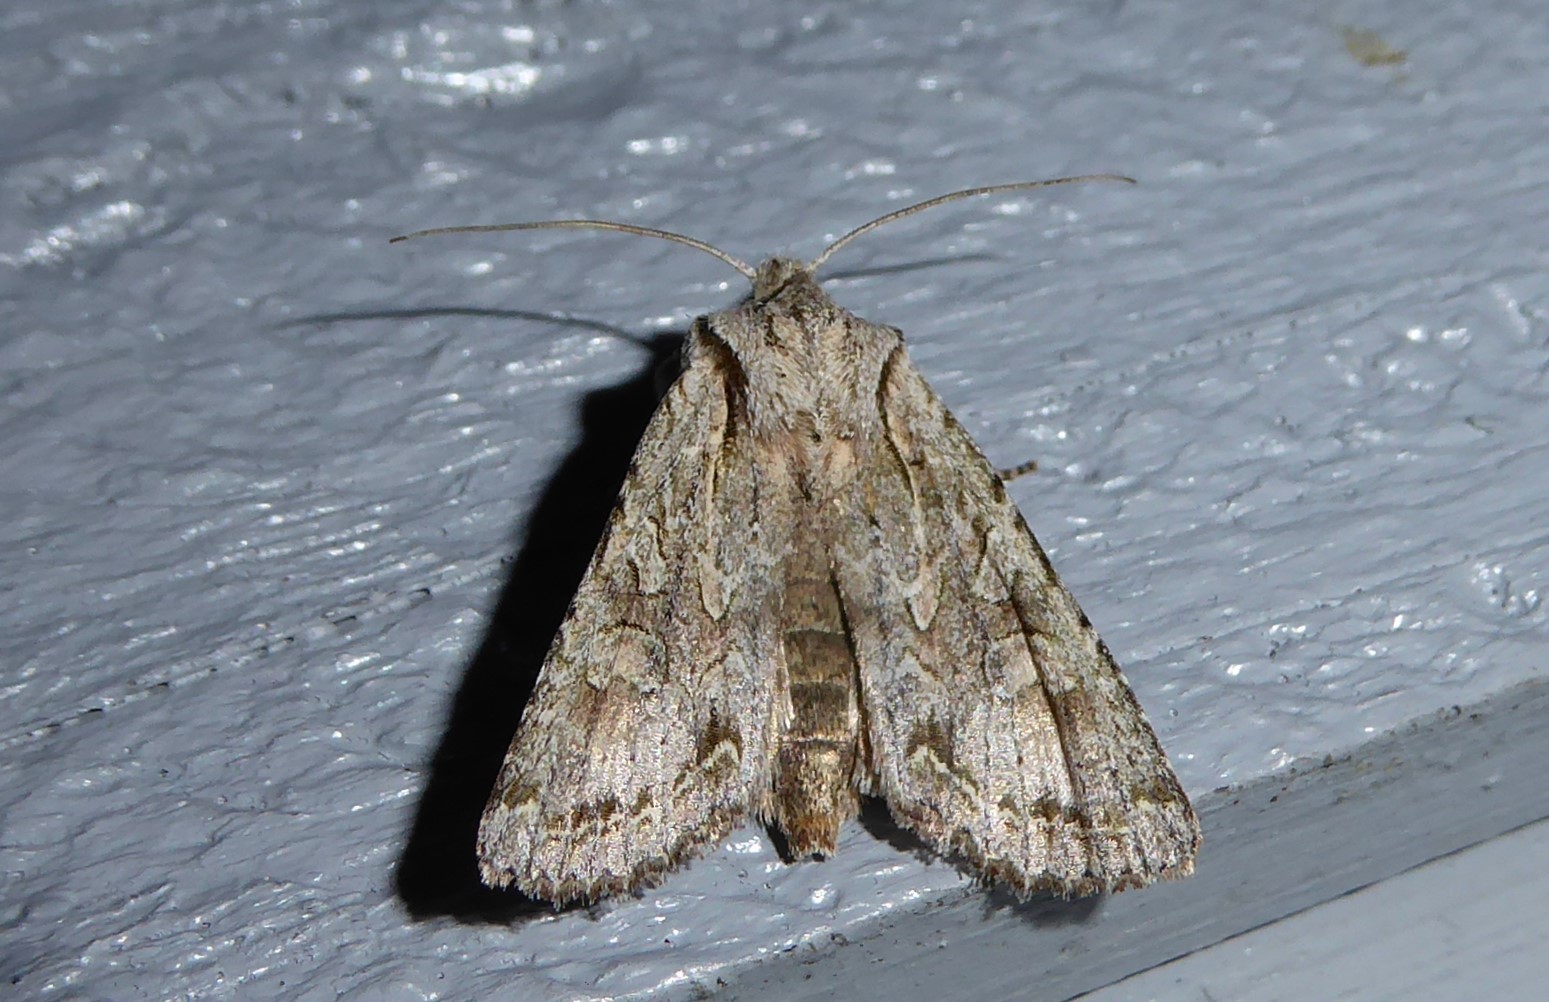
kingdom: Animalia
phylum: Arthropoda
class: Insecta
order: Lepidoptera
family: Noctuidae
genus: Ichneutica
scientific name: Ichneutica mutans
